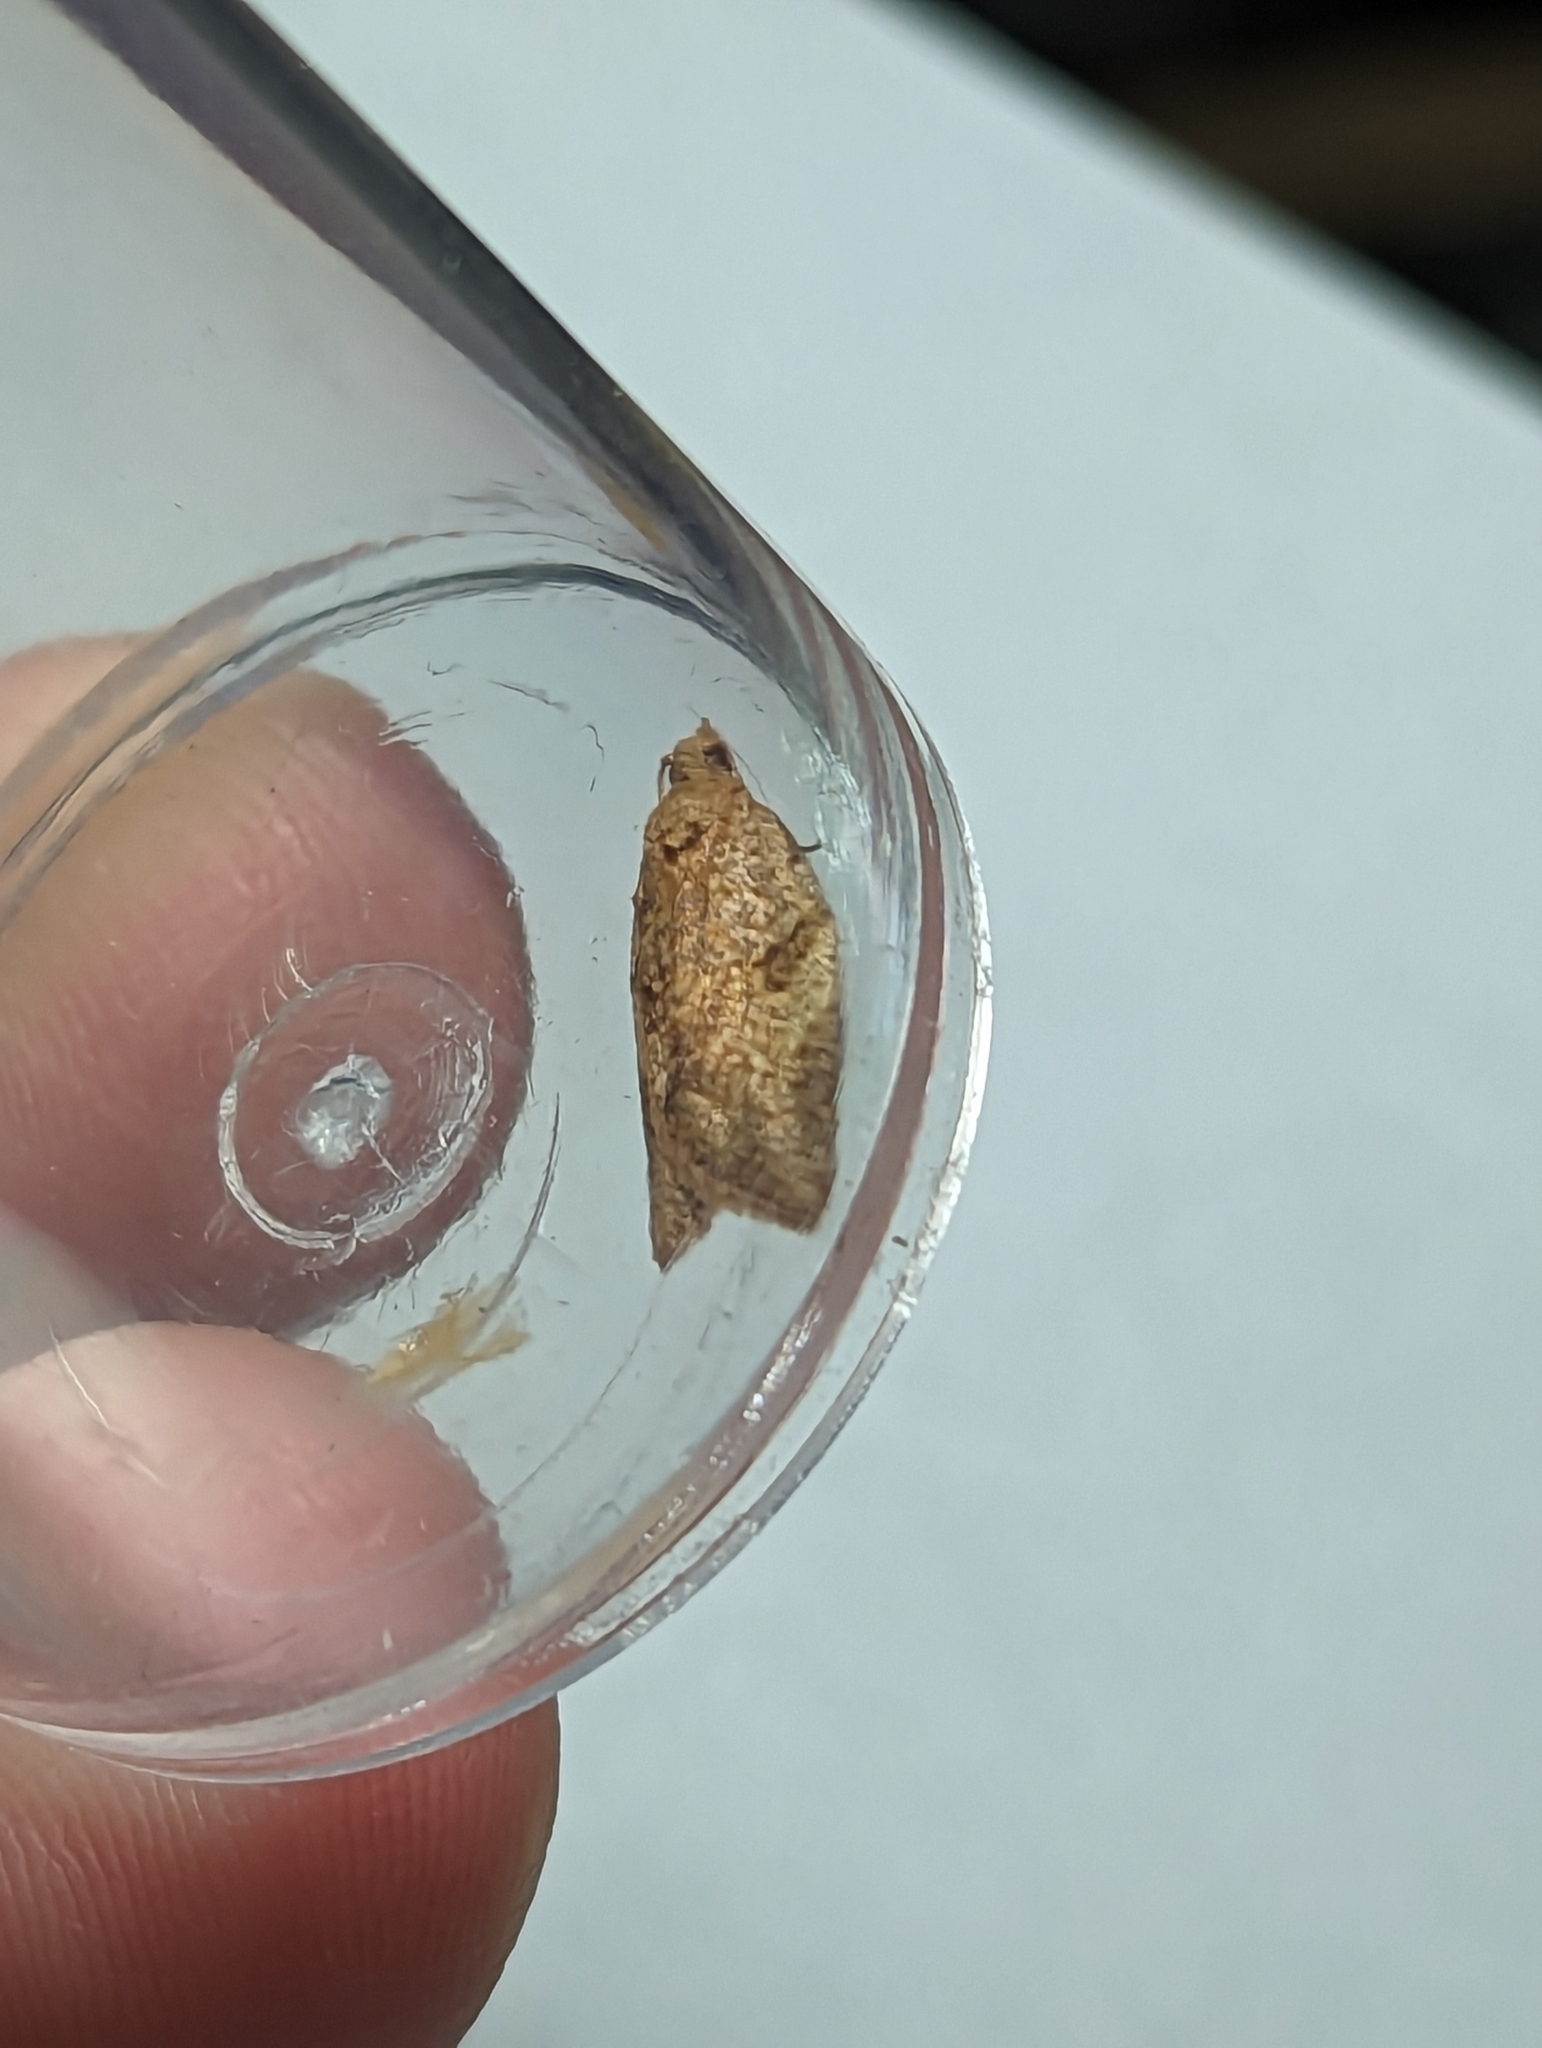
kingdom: Animalia
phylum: Arthropoda
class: Insecta
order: Lepidoptera
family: Tortricidae
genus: Epiphyas
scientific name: Epiphyas postvittana
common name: Light brown apple moth
